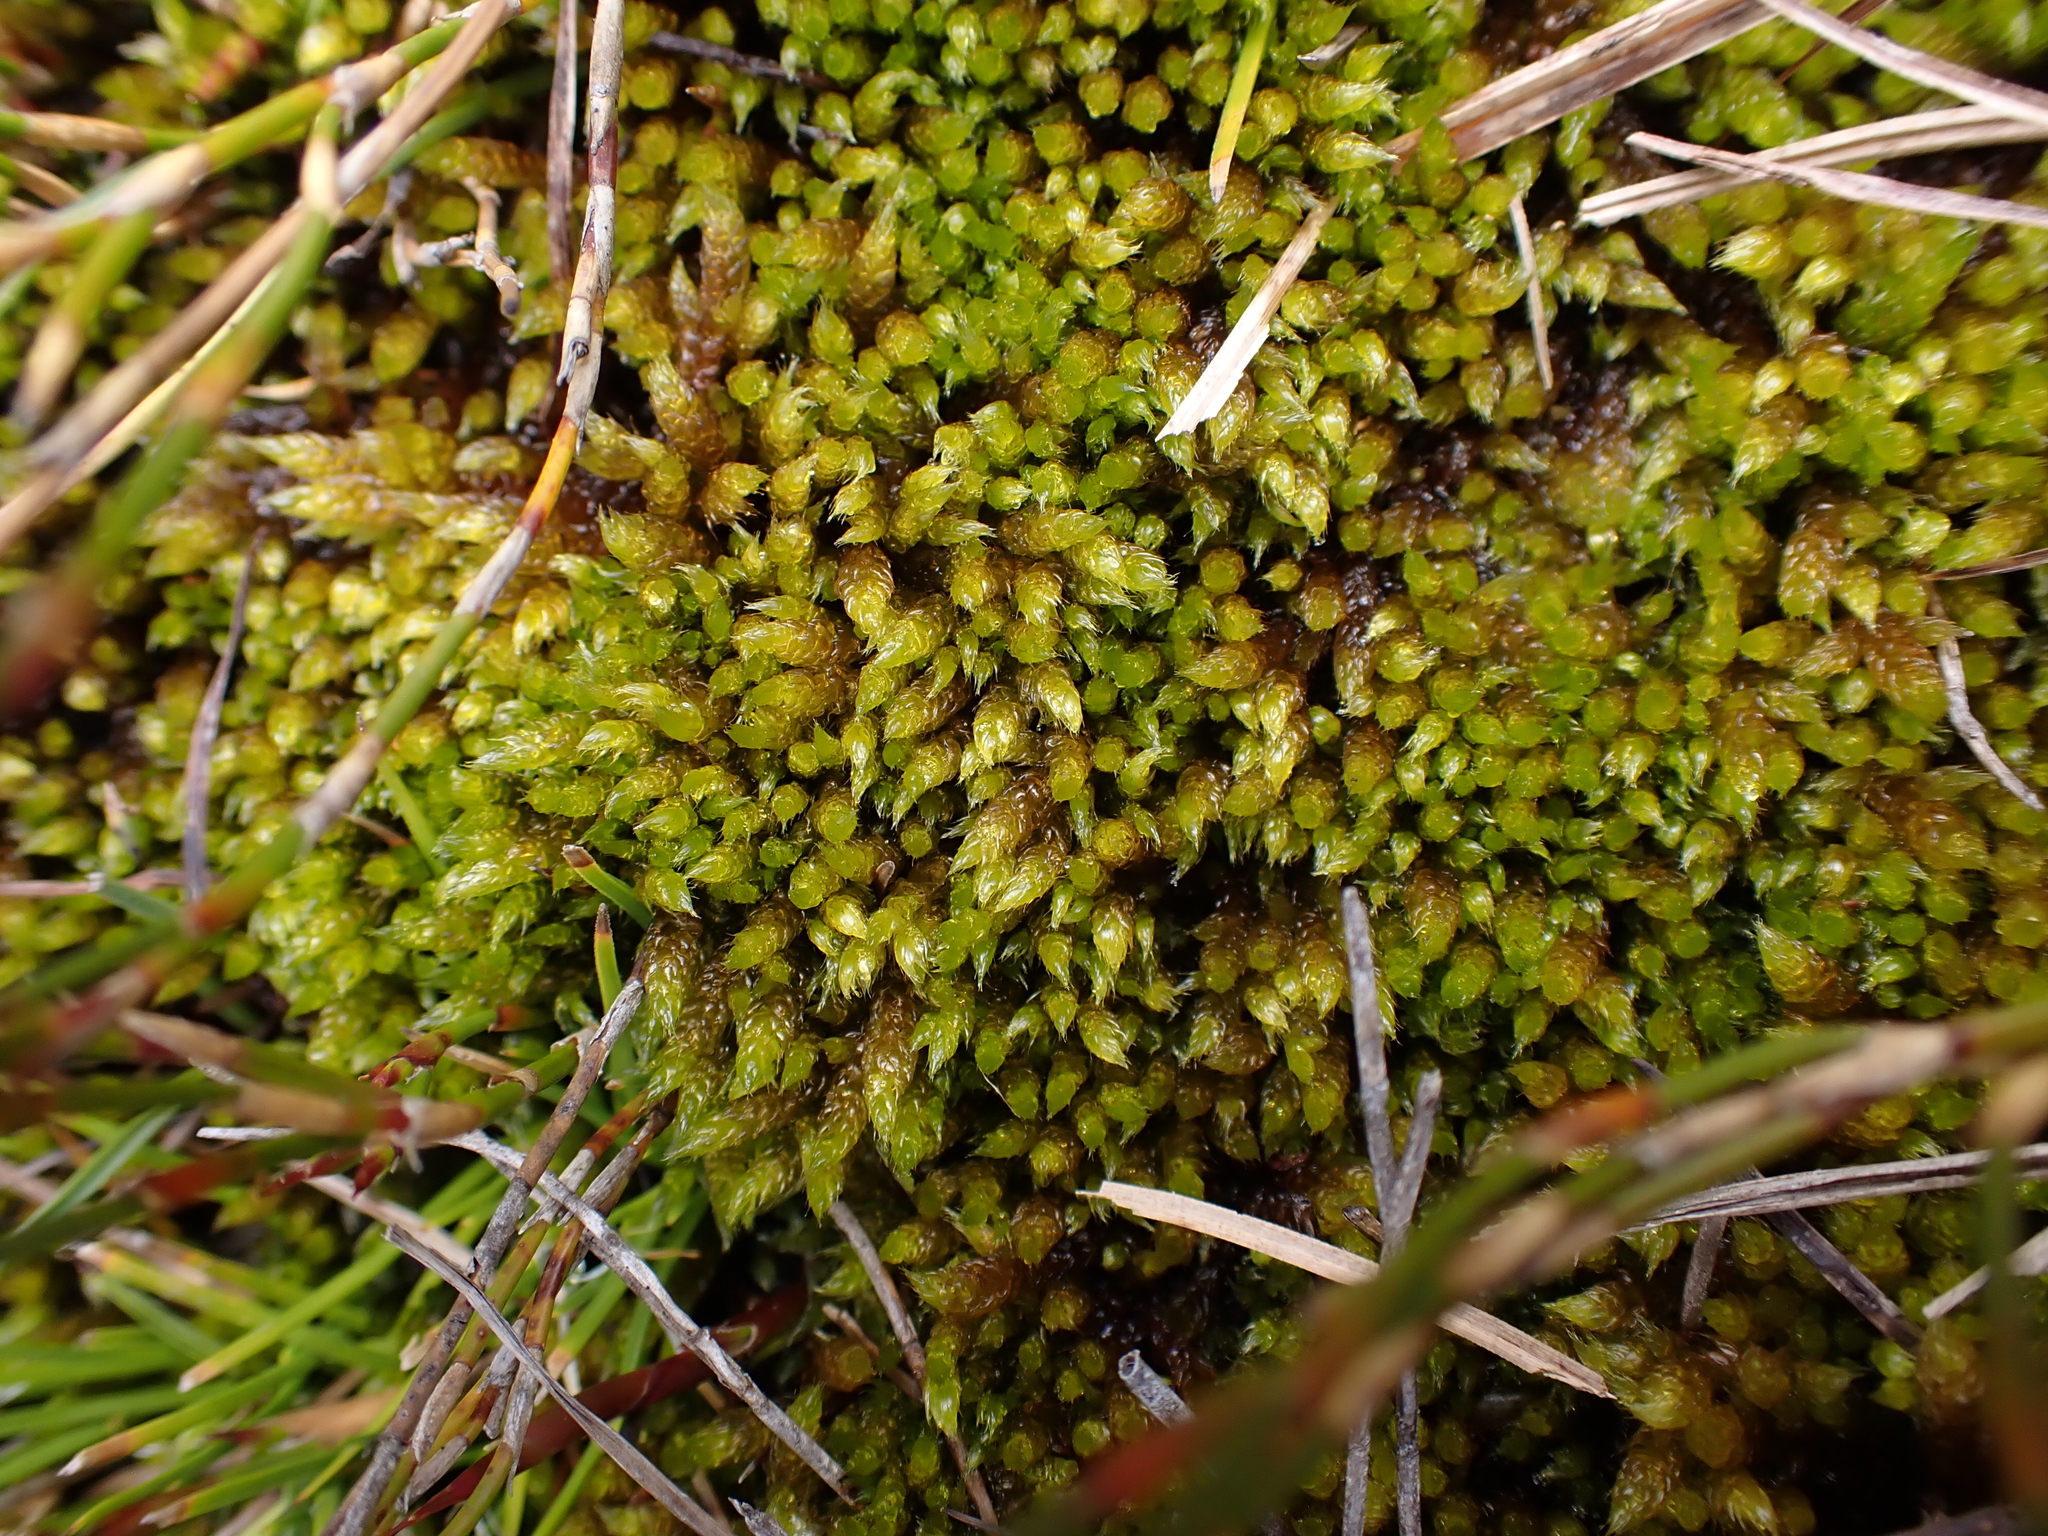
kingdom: Plantae
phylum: Bryophyta
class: Bryopsida
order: Hypnales
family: Hypnaceae
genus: Hypnum
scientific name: Hypnum cupressiforme
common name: Cypress-leaved plait-moss
